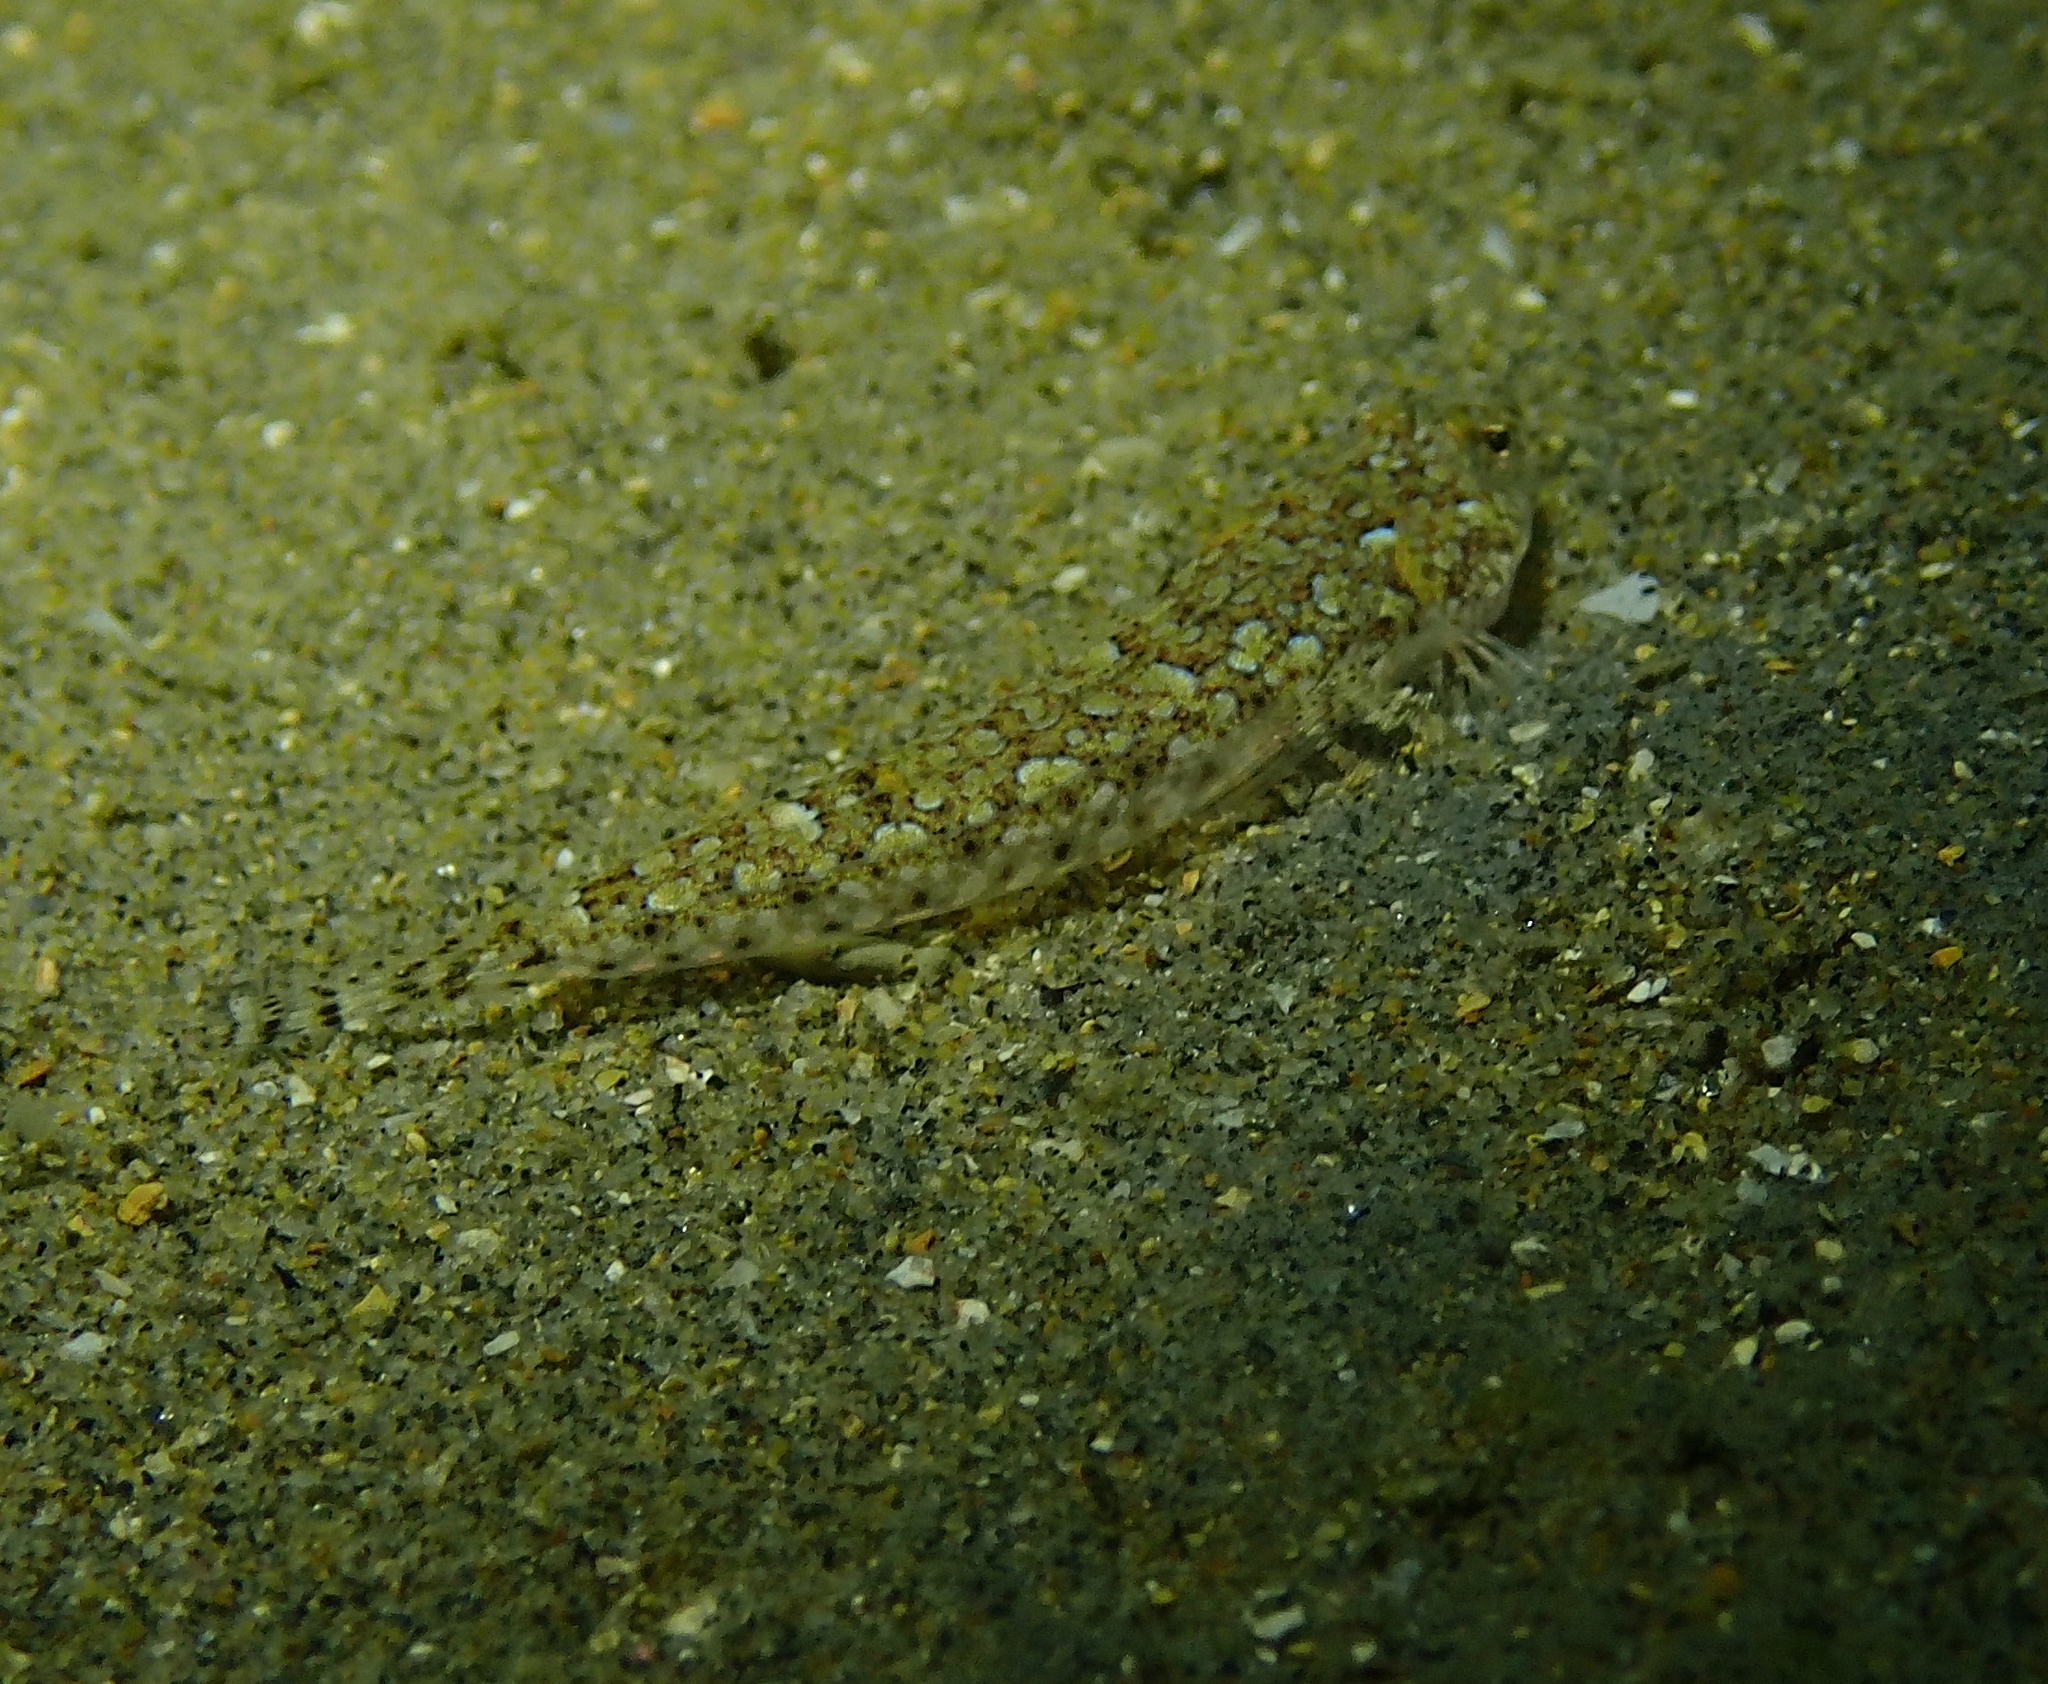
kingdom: Animalia
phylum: Chordata
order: Perciformes
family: Callionymidae
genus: Callionymus
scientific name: Callionymus risso
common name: Risso’s dragonet
